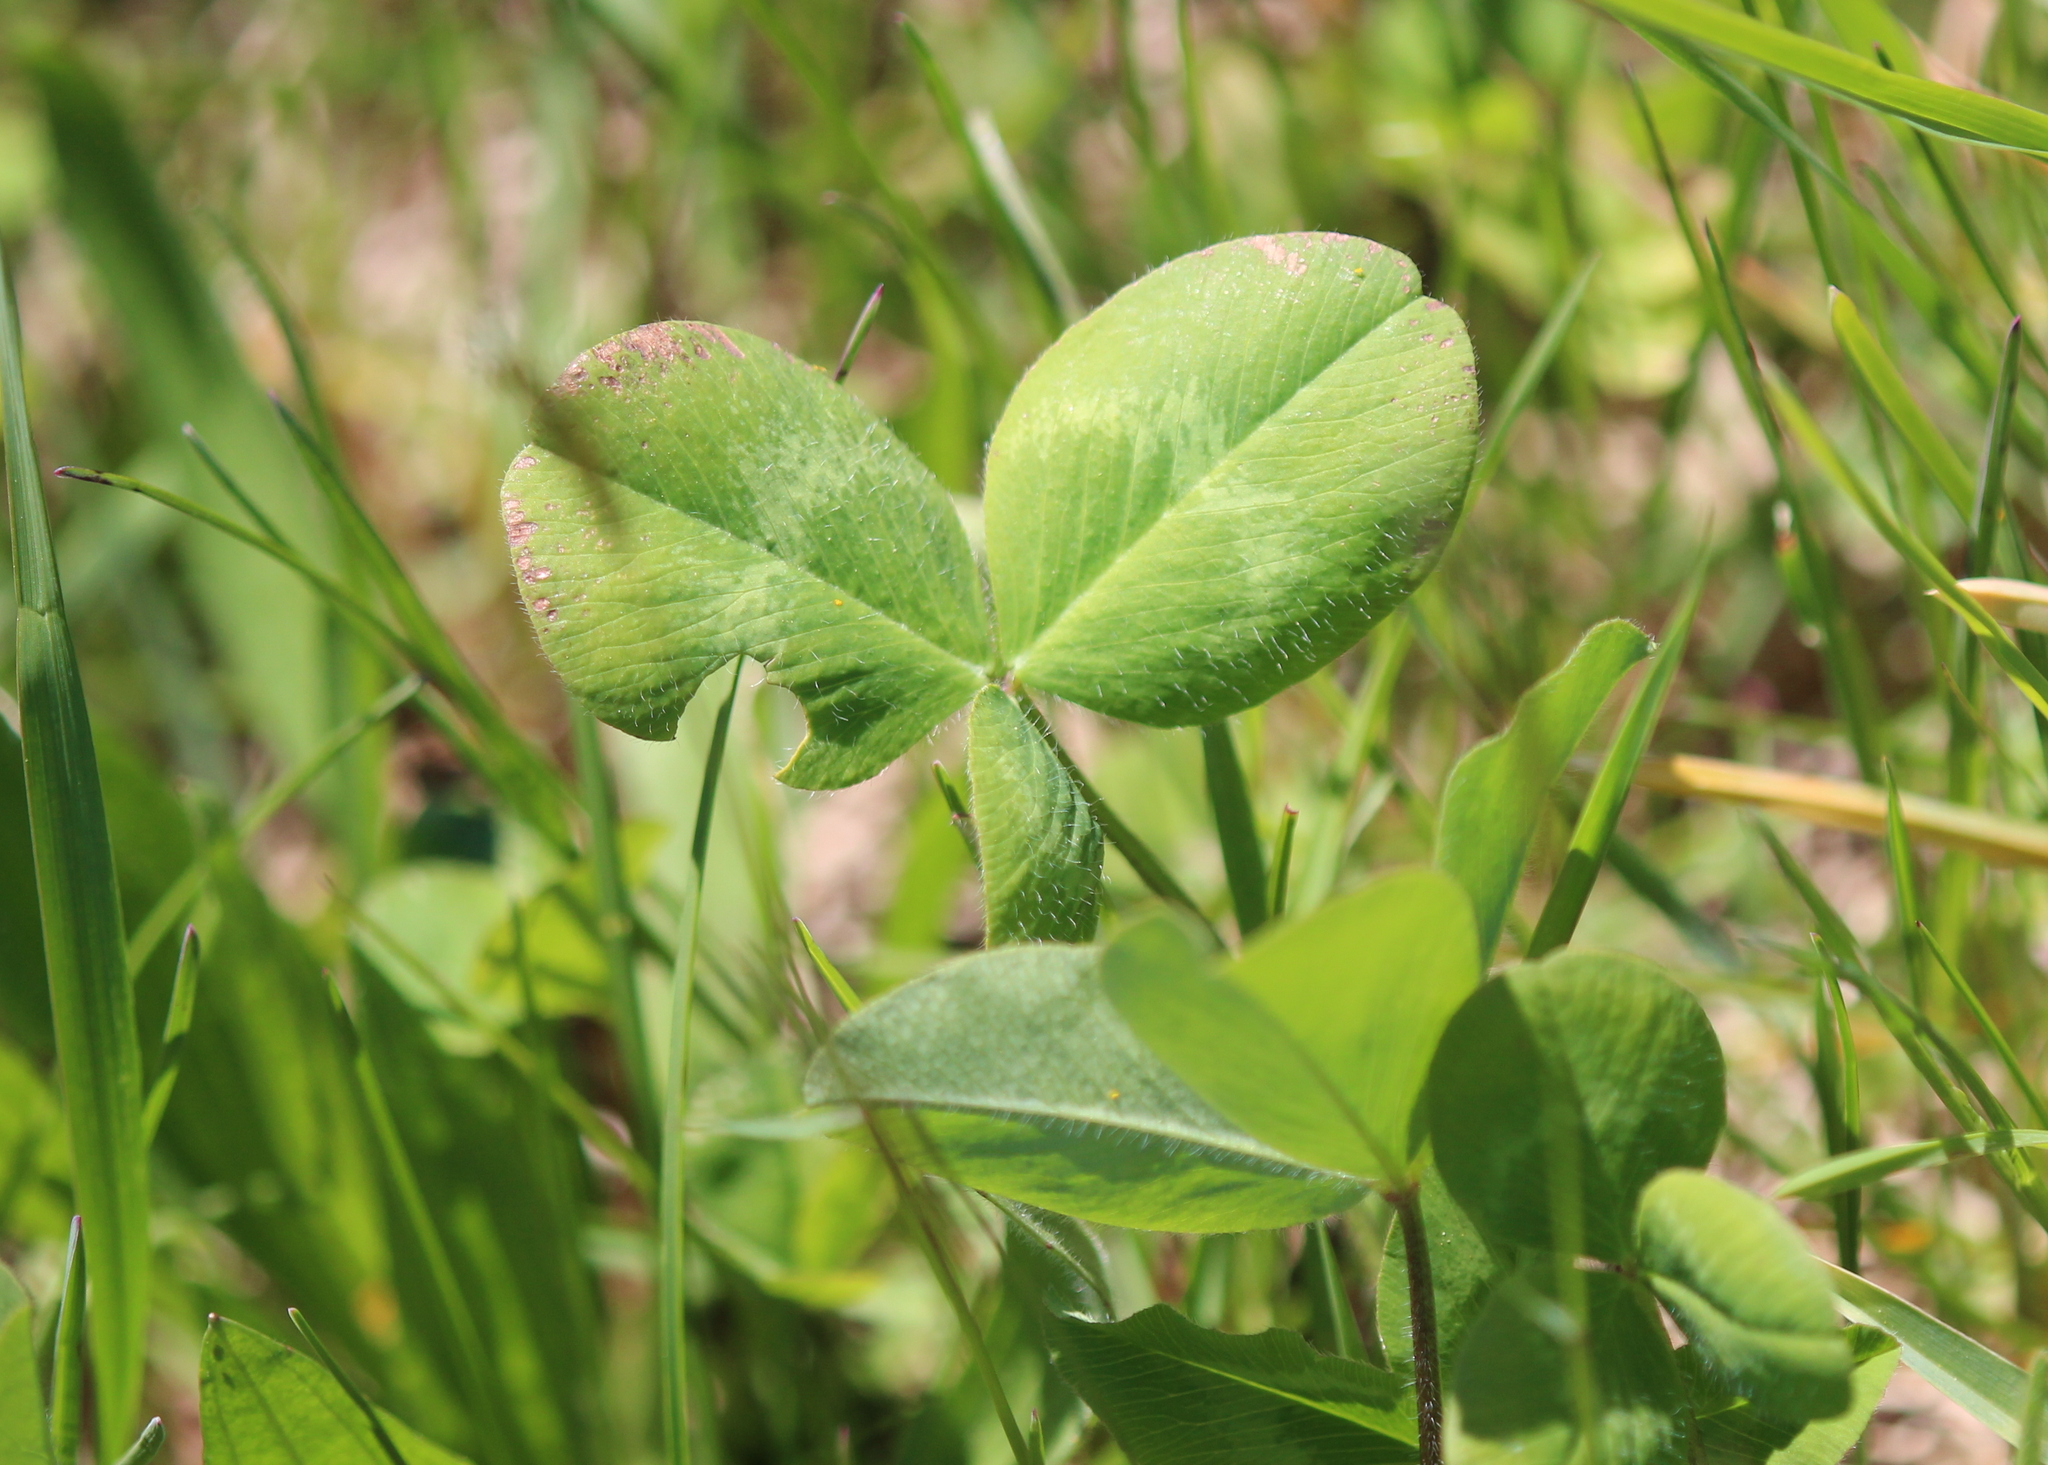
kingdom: Plantae
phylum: Tracheophyta
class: Magnoliopsida
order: Fabales
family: Fabaceae
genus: Trifolium
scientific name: Trifolium pratense
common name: Red clover
